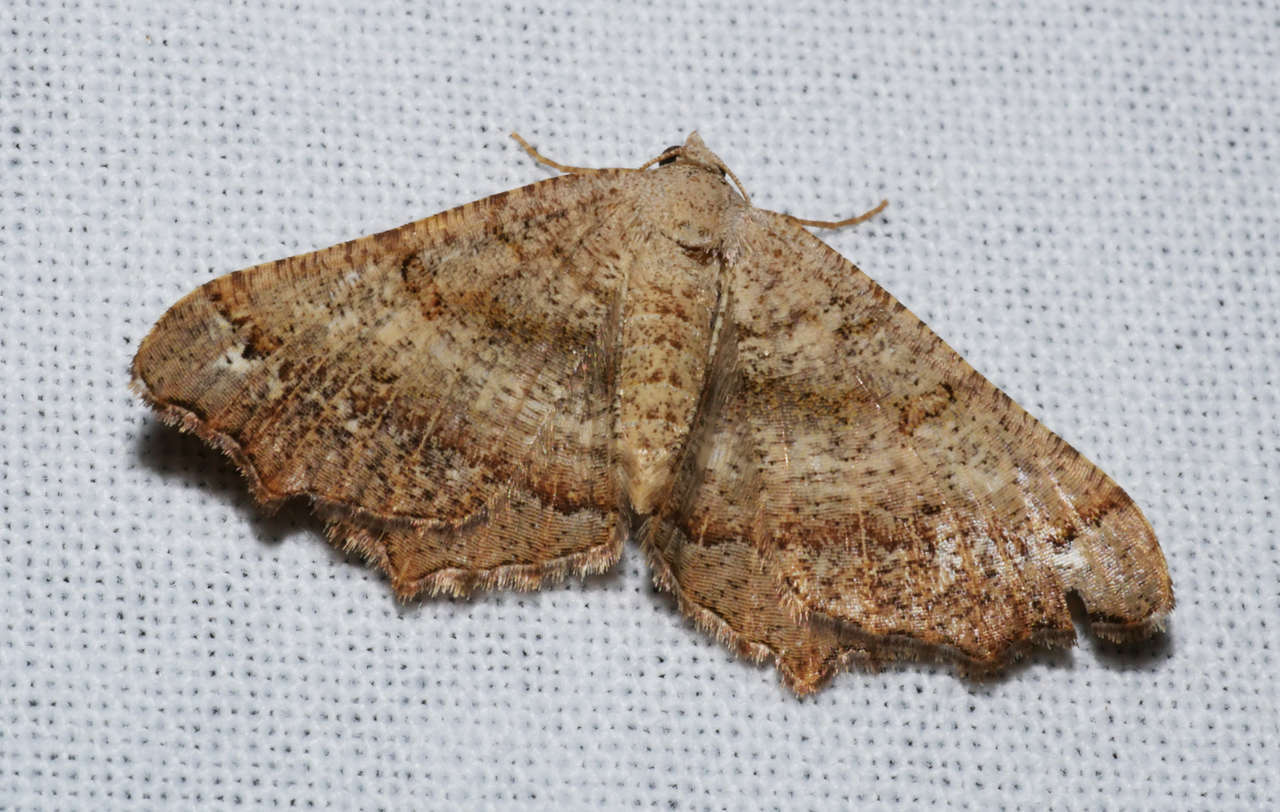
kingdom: Animalia
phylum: Arthropoda
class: Insecta
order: Lepidoptera
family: Geometridae
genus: Dissomorphia
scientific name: Dissomorphia australiaria
